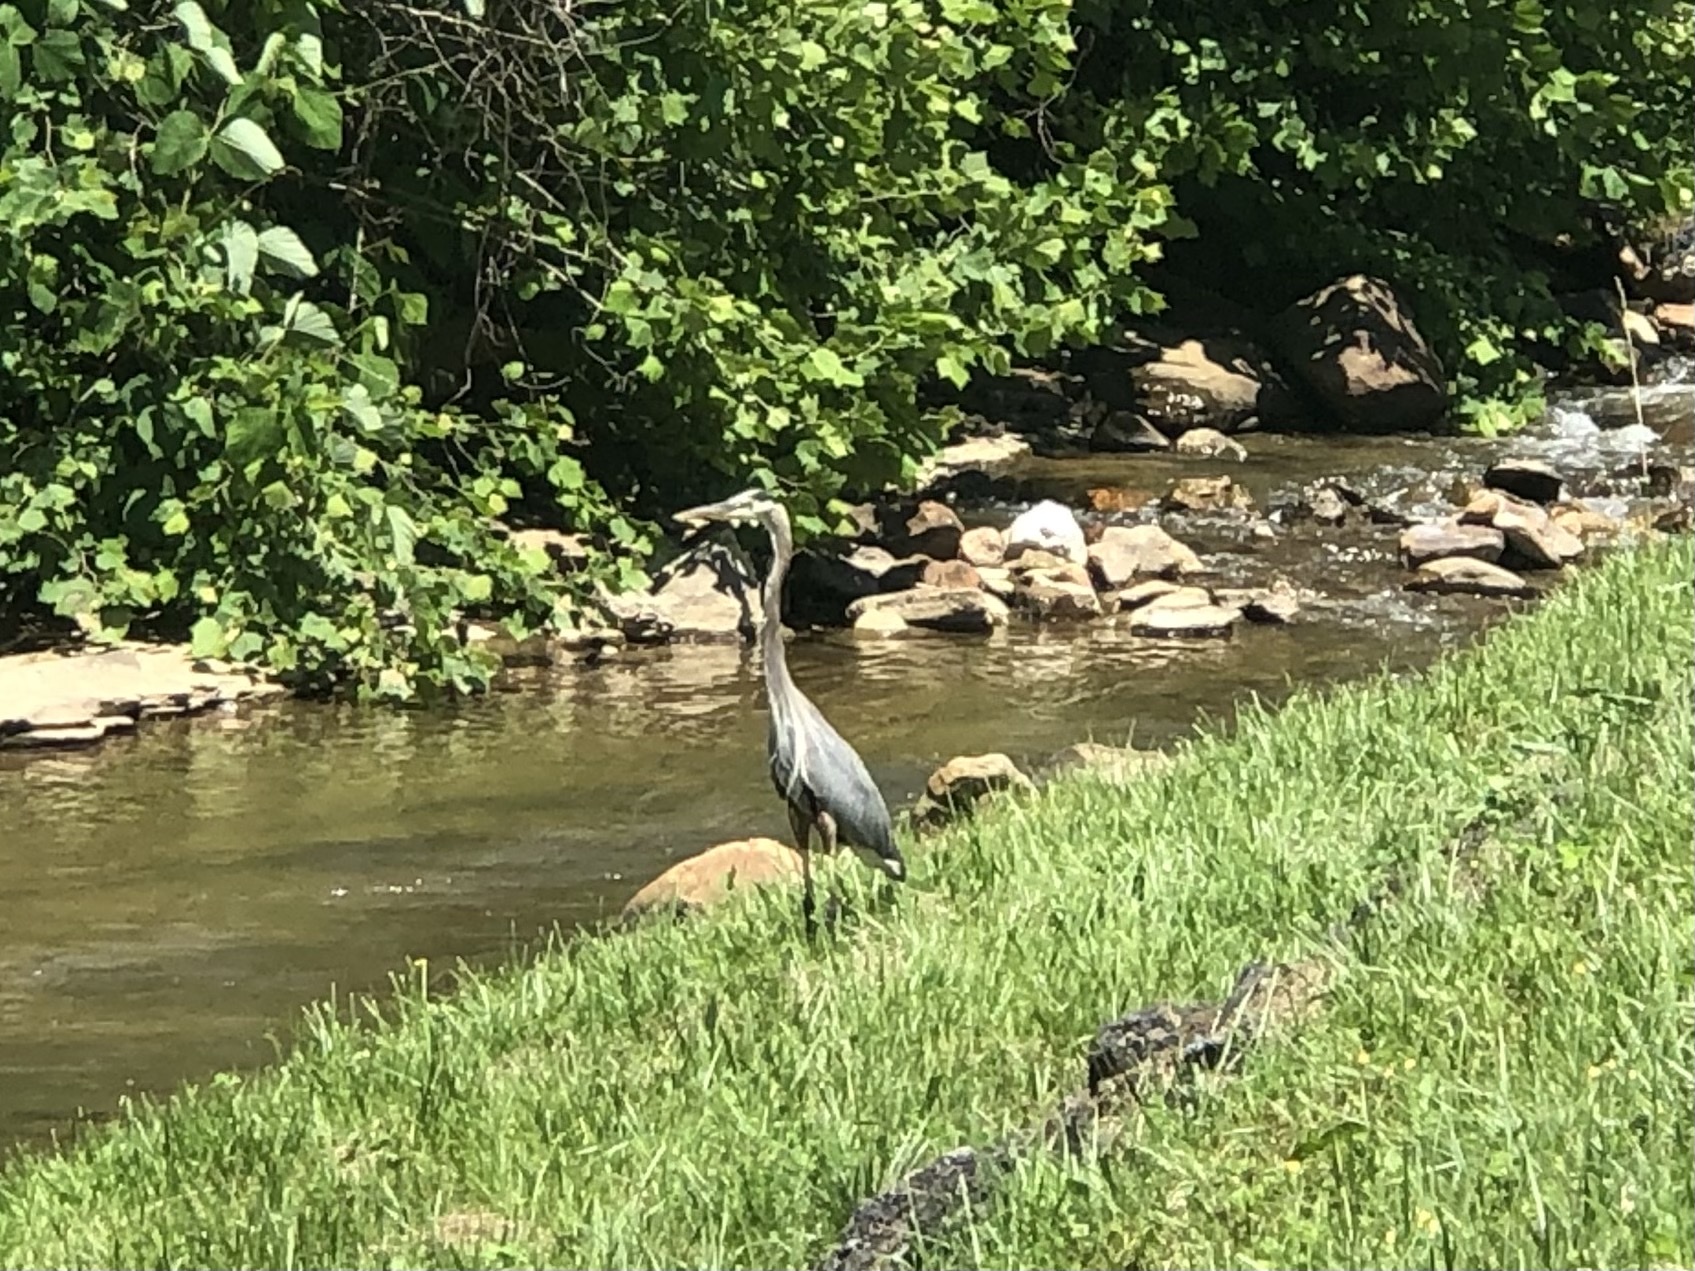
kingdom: Animalia
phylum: Chordata
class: Aves
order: Pelecaniformes
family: Ardeidae
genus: Ardea
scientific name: Ardea herodias
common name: Great blue heron
